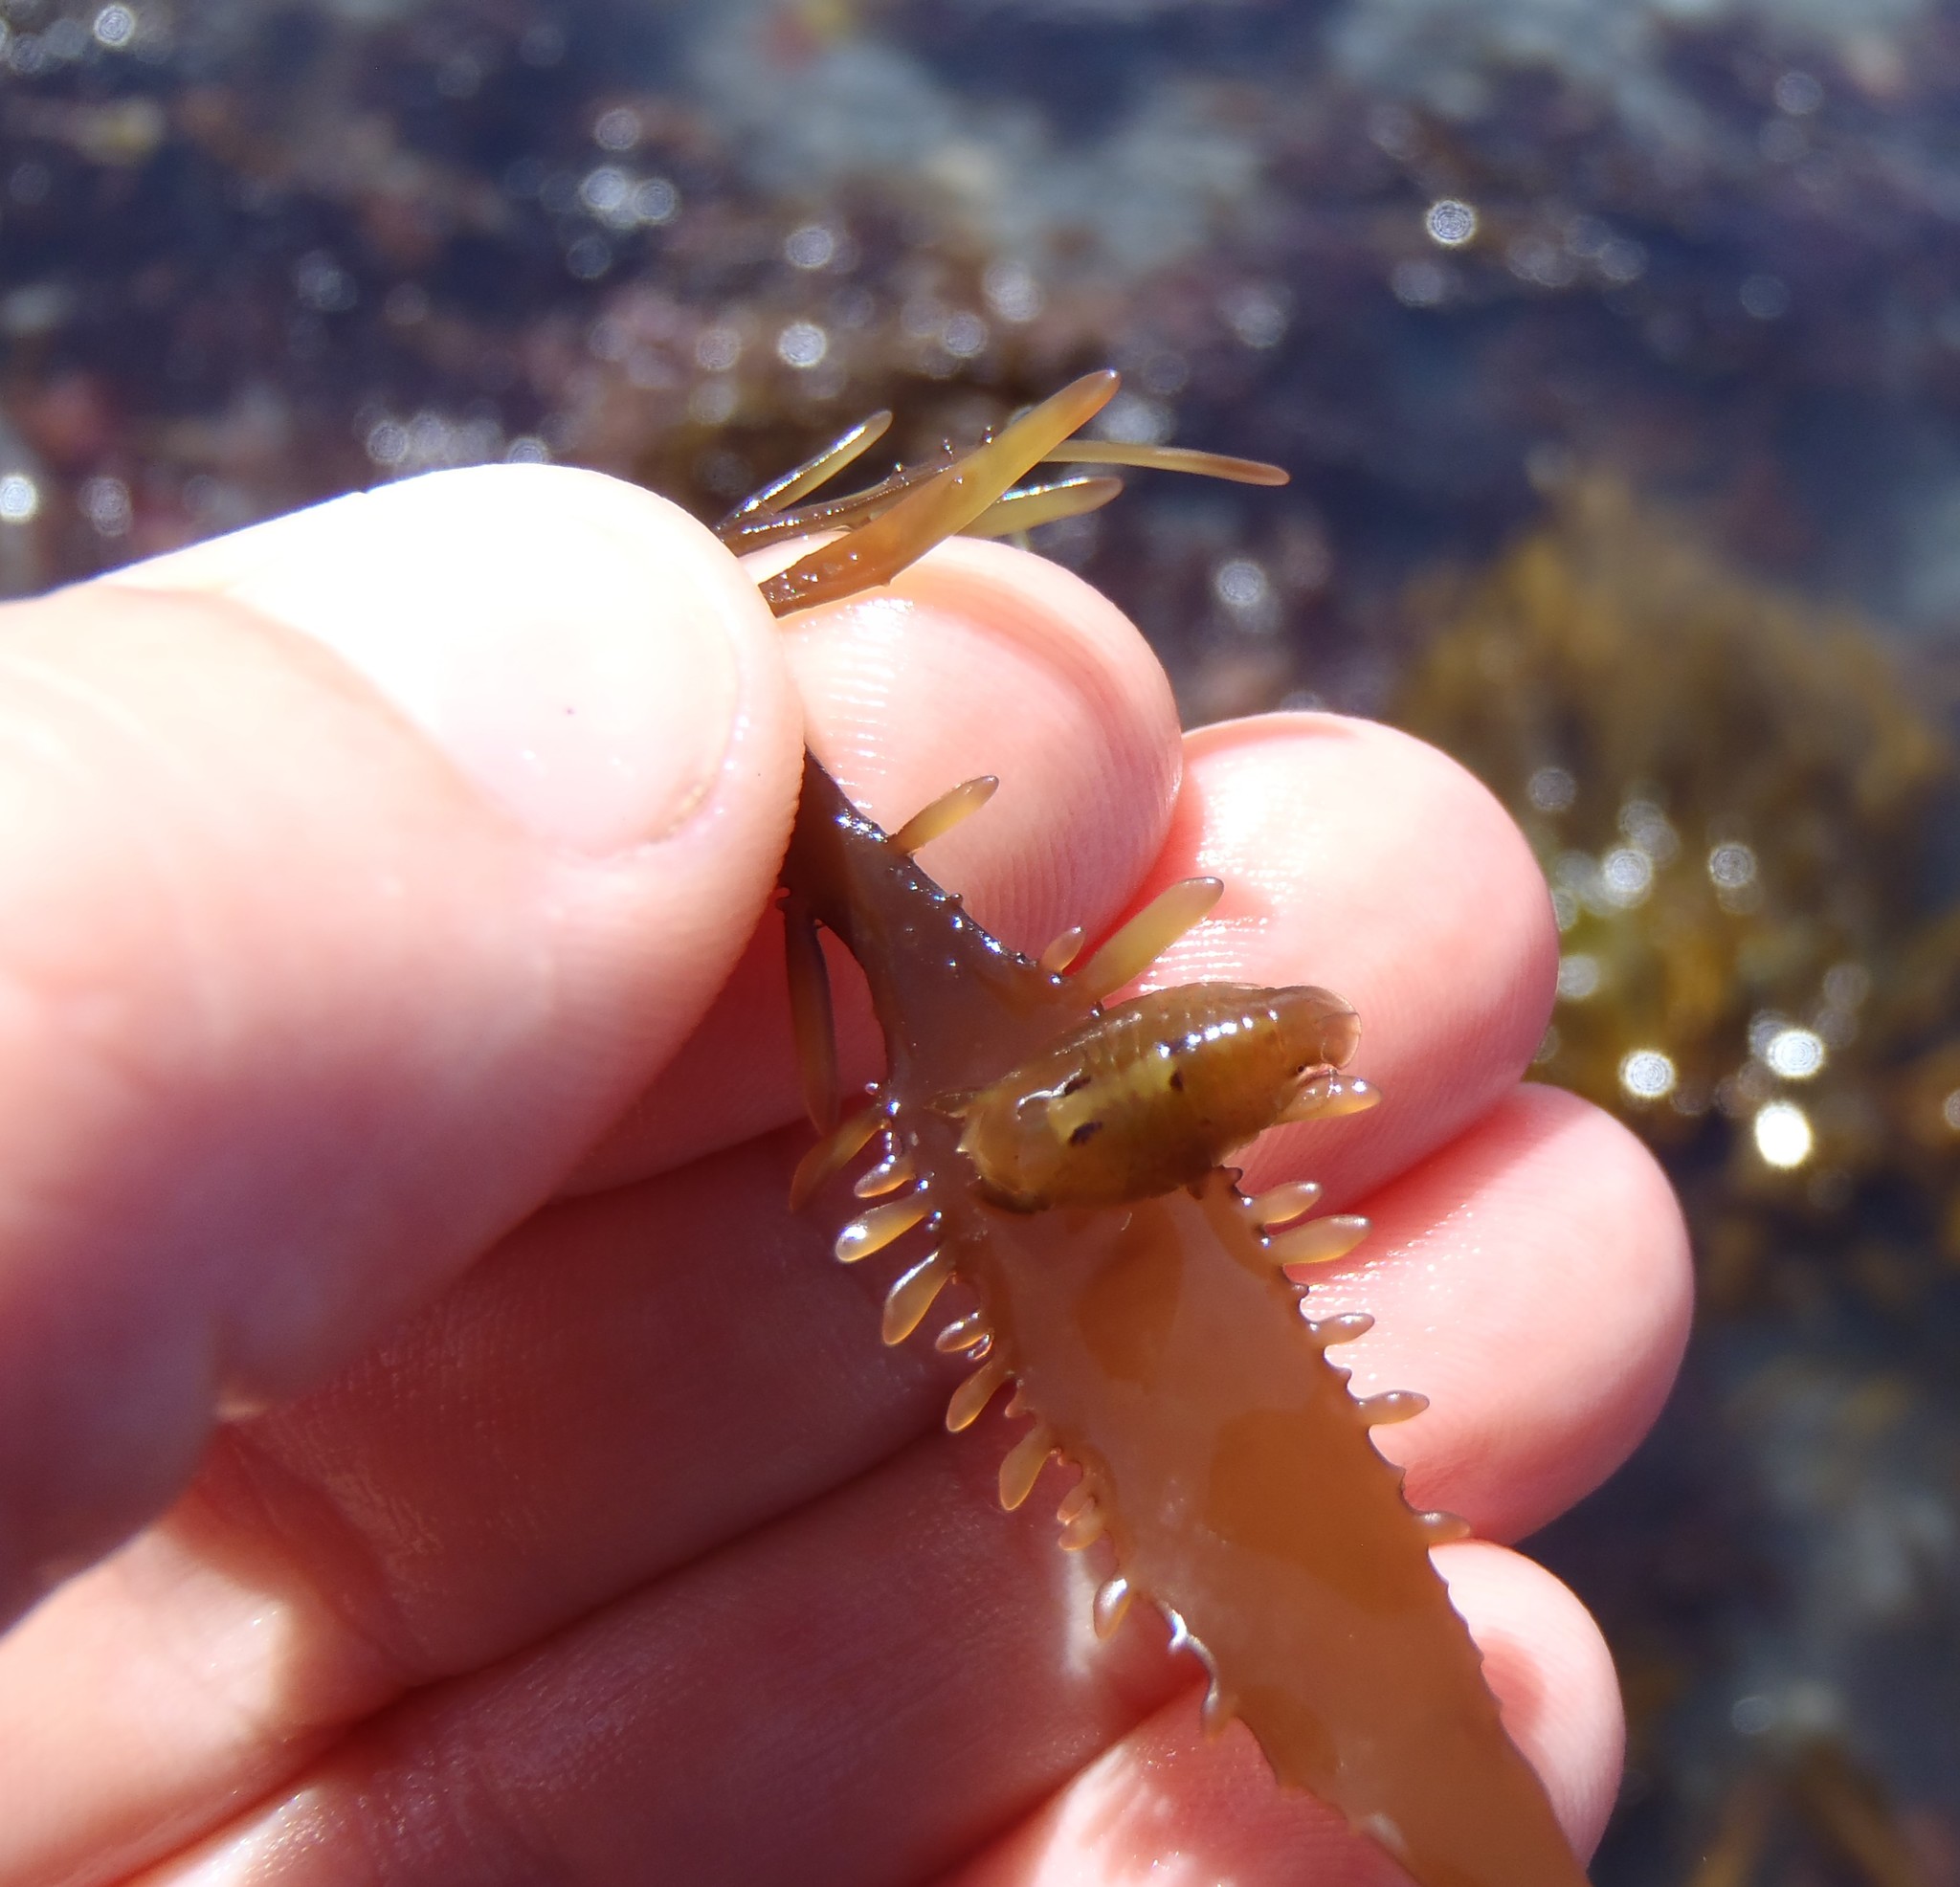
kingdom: Animalia
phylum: Arthropoda
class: Malacostraca
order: Isopoda
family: Sphaeromatidae
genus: Amphoroidea
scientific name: Amphoroidea media
